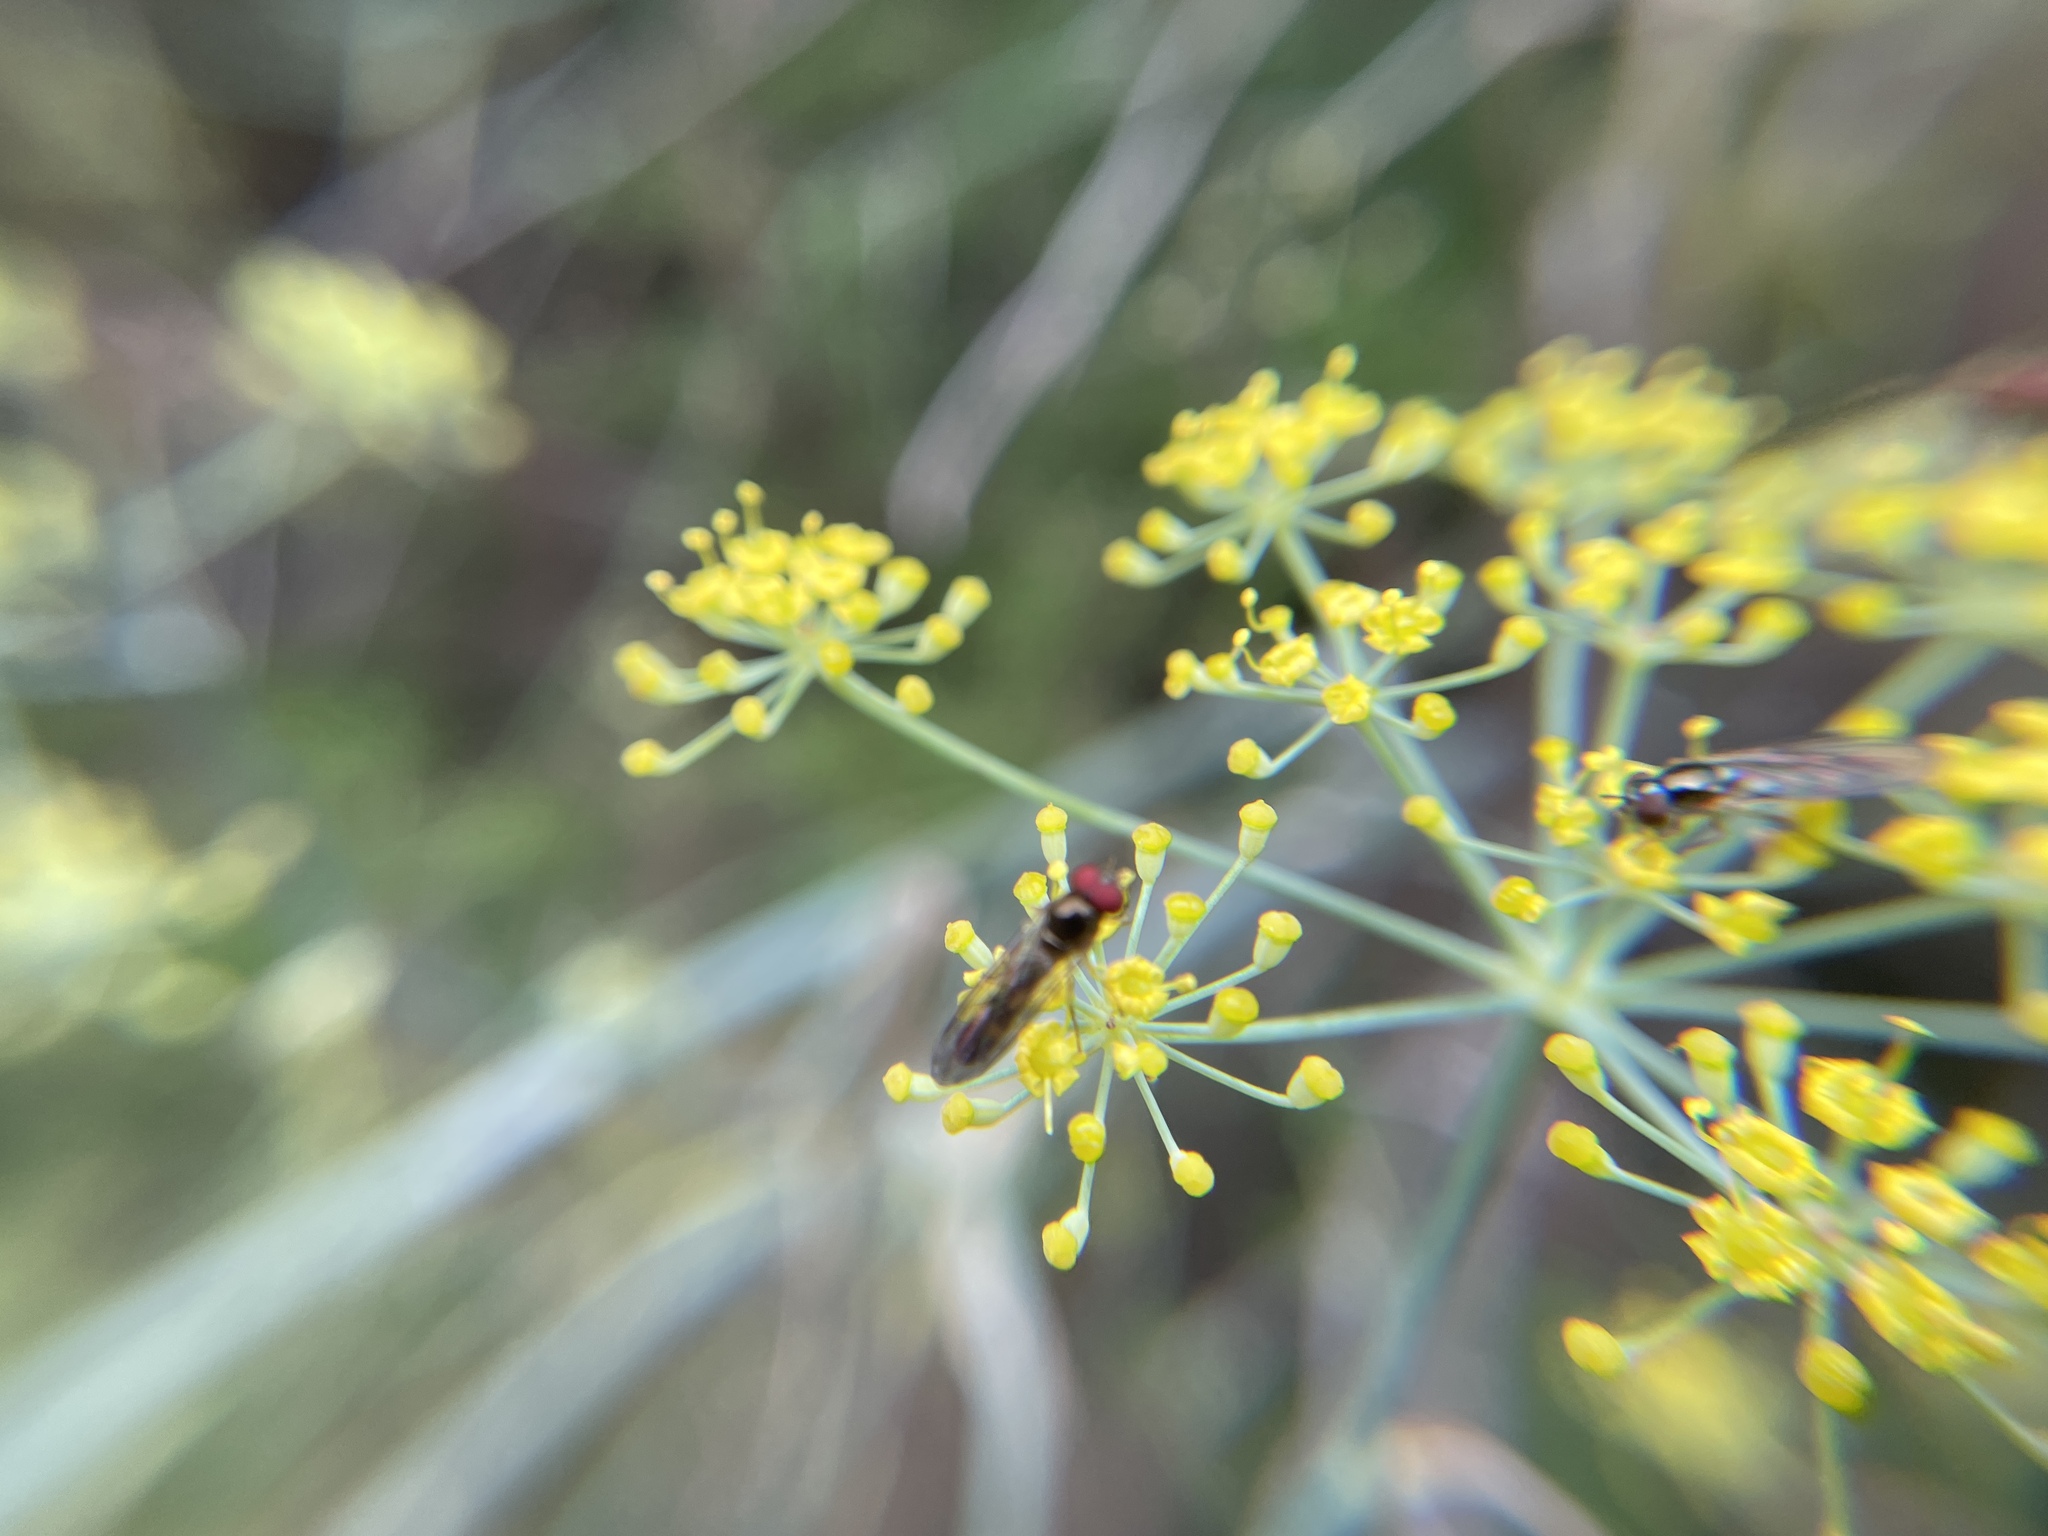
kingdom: Animalia
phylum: Arthropoda
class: Insecta
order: Diptera
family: Syrphidae
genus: Melanostoma
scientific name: Melanostoma mellina
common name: Hover fly
